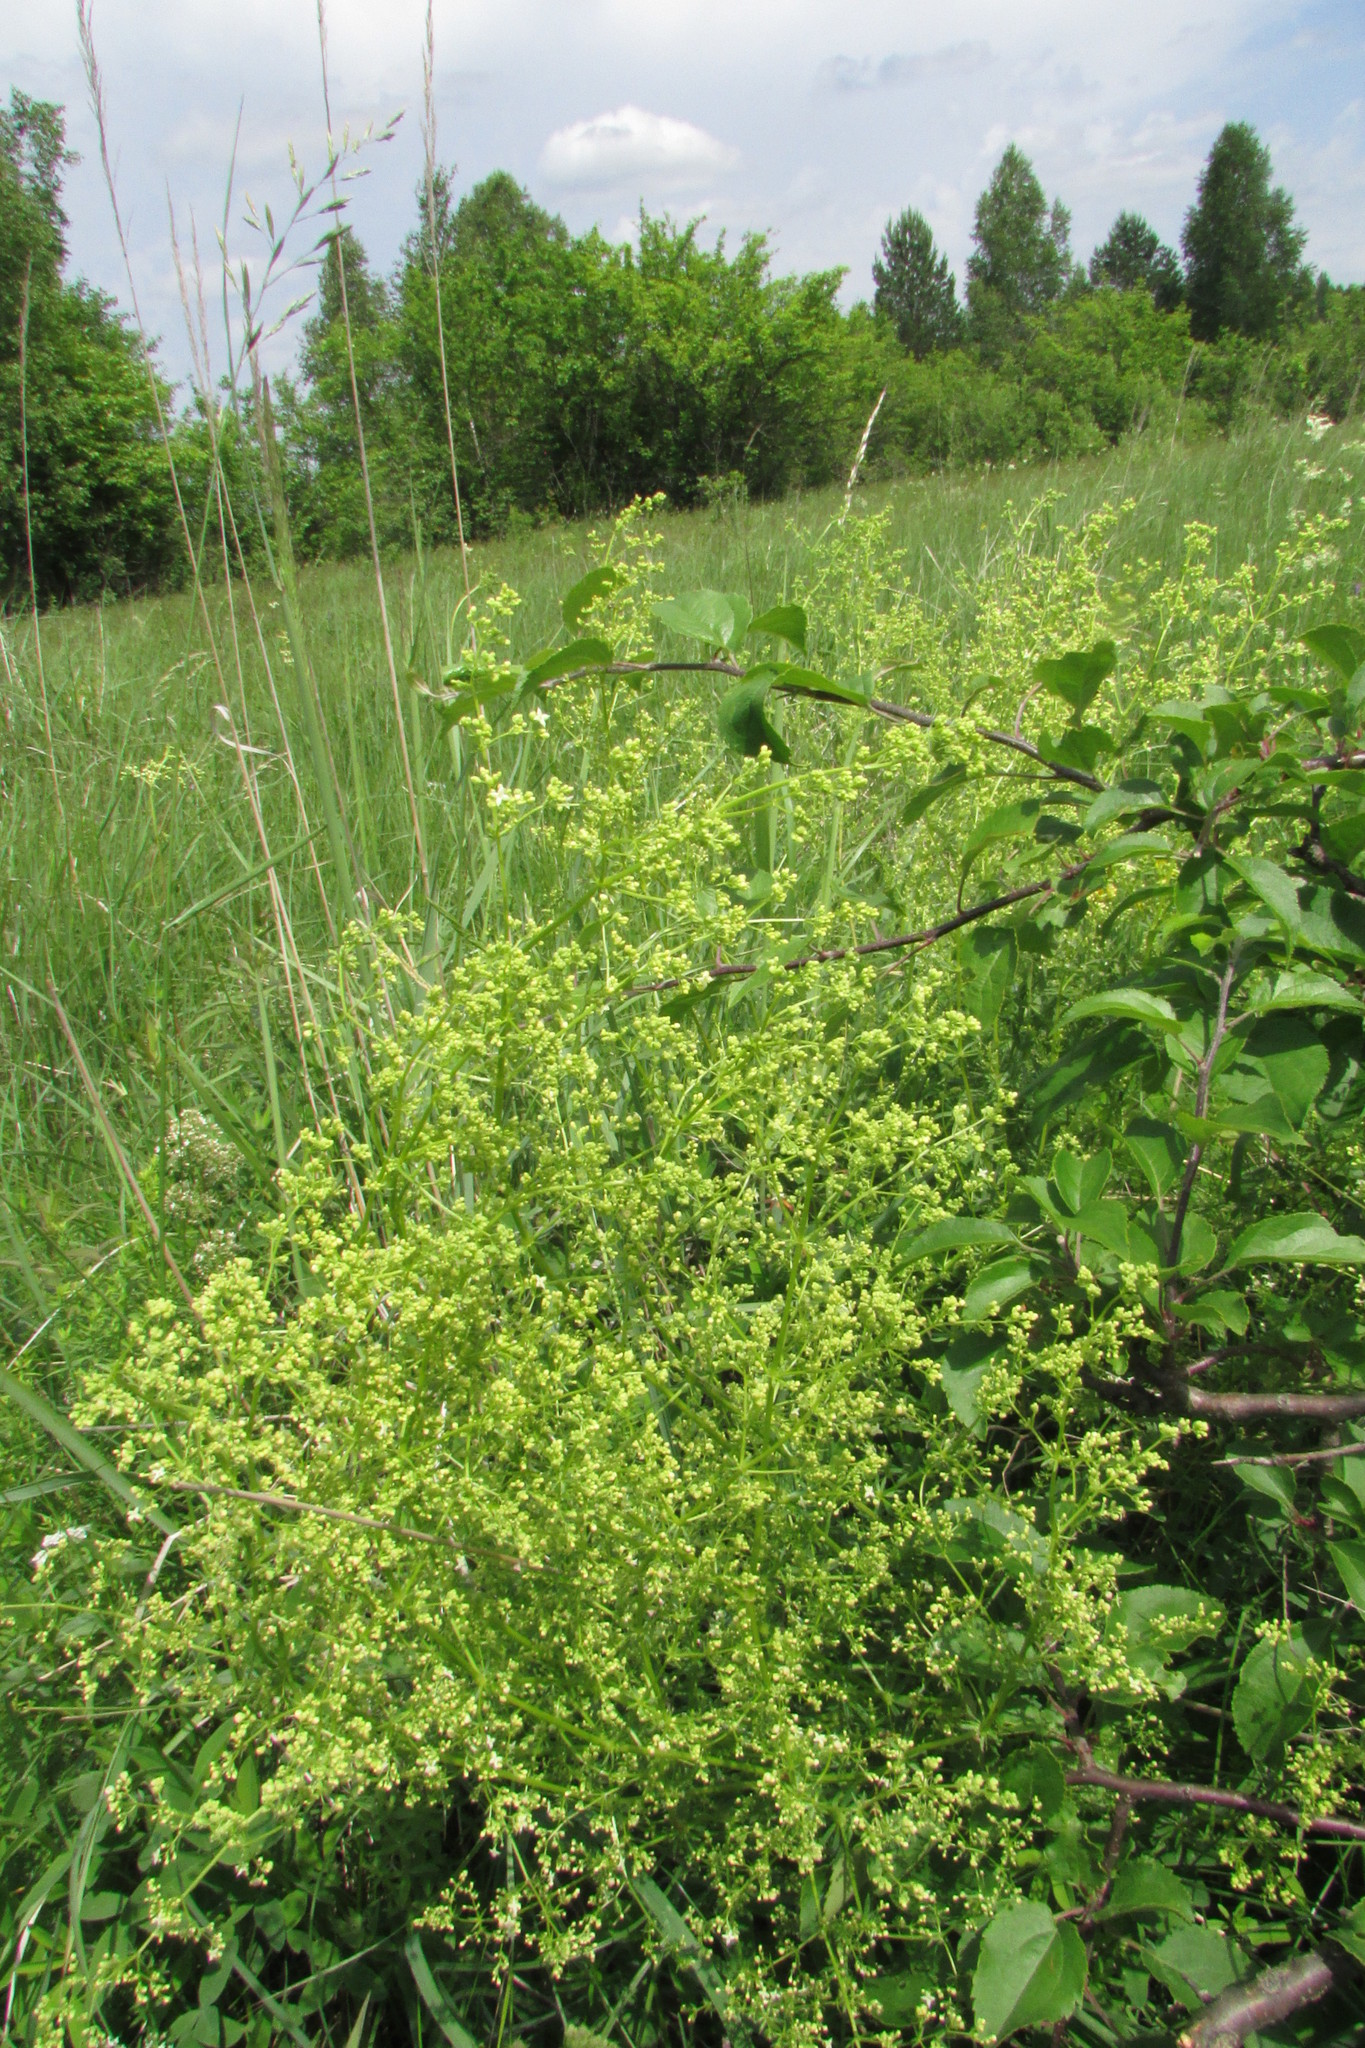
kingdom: Plantae
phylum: Tracheophyta
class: Magnoliopsida
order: Gentianales
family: Rubiaceae
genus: Galium
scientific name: Galium mollugo
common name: Hedge bedstraw
